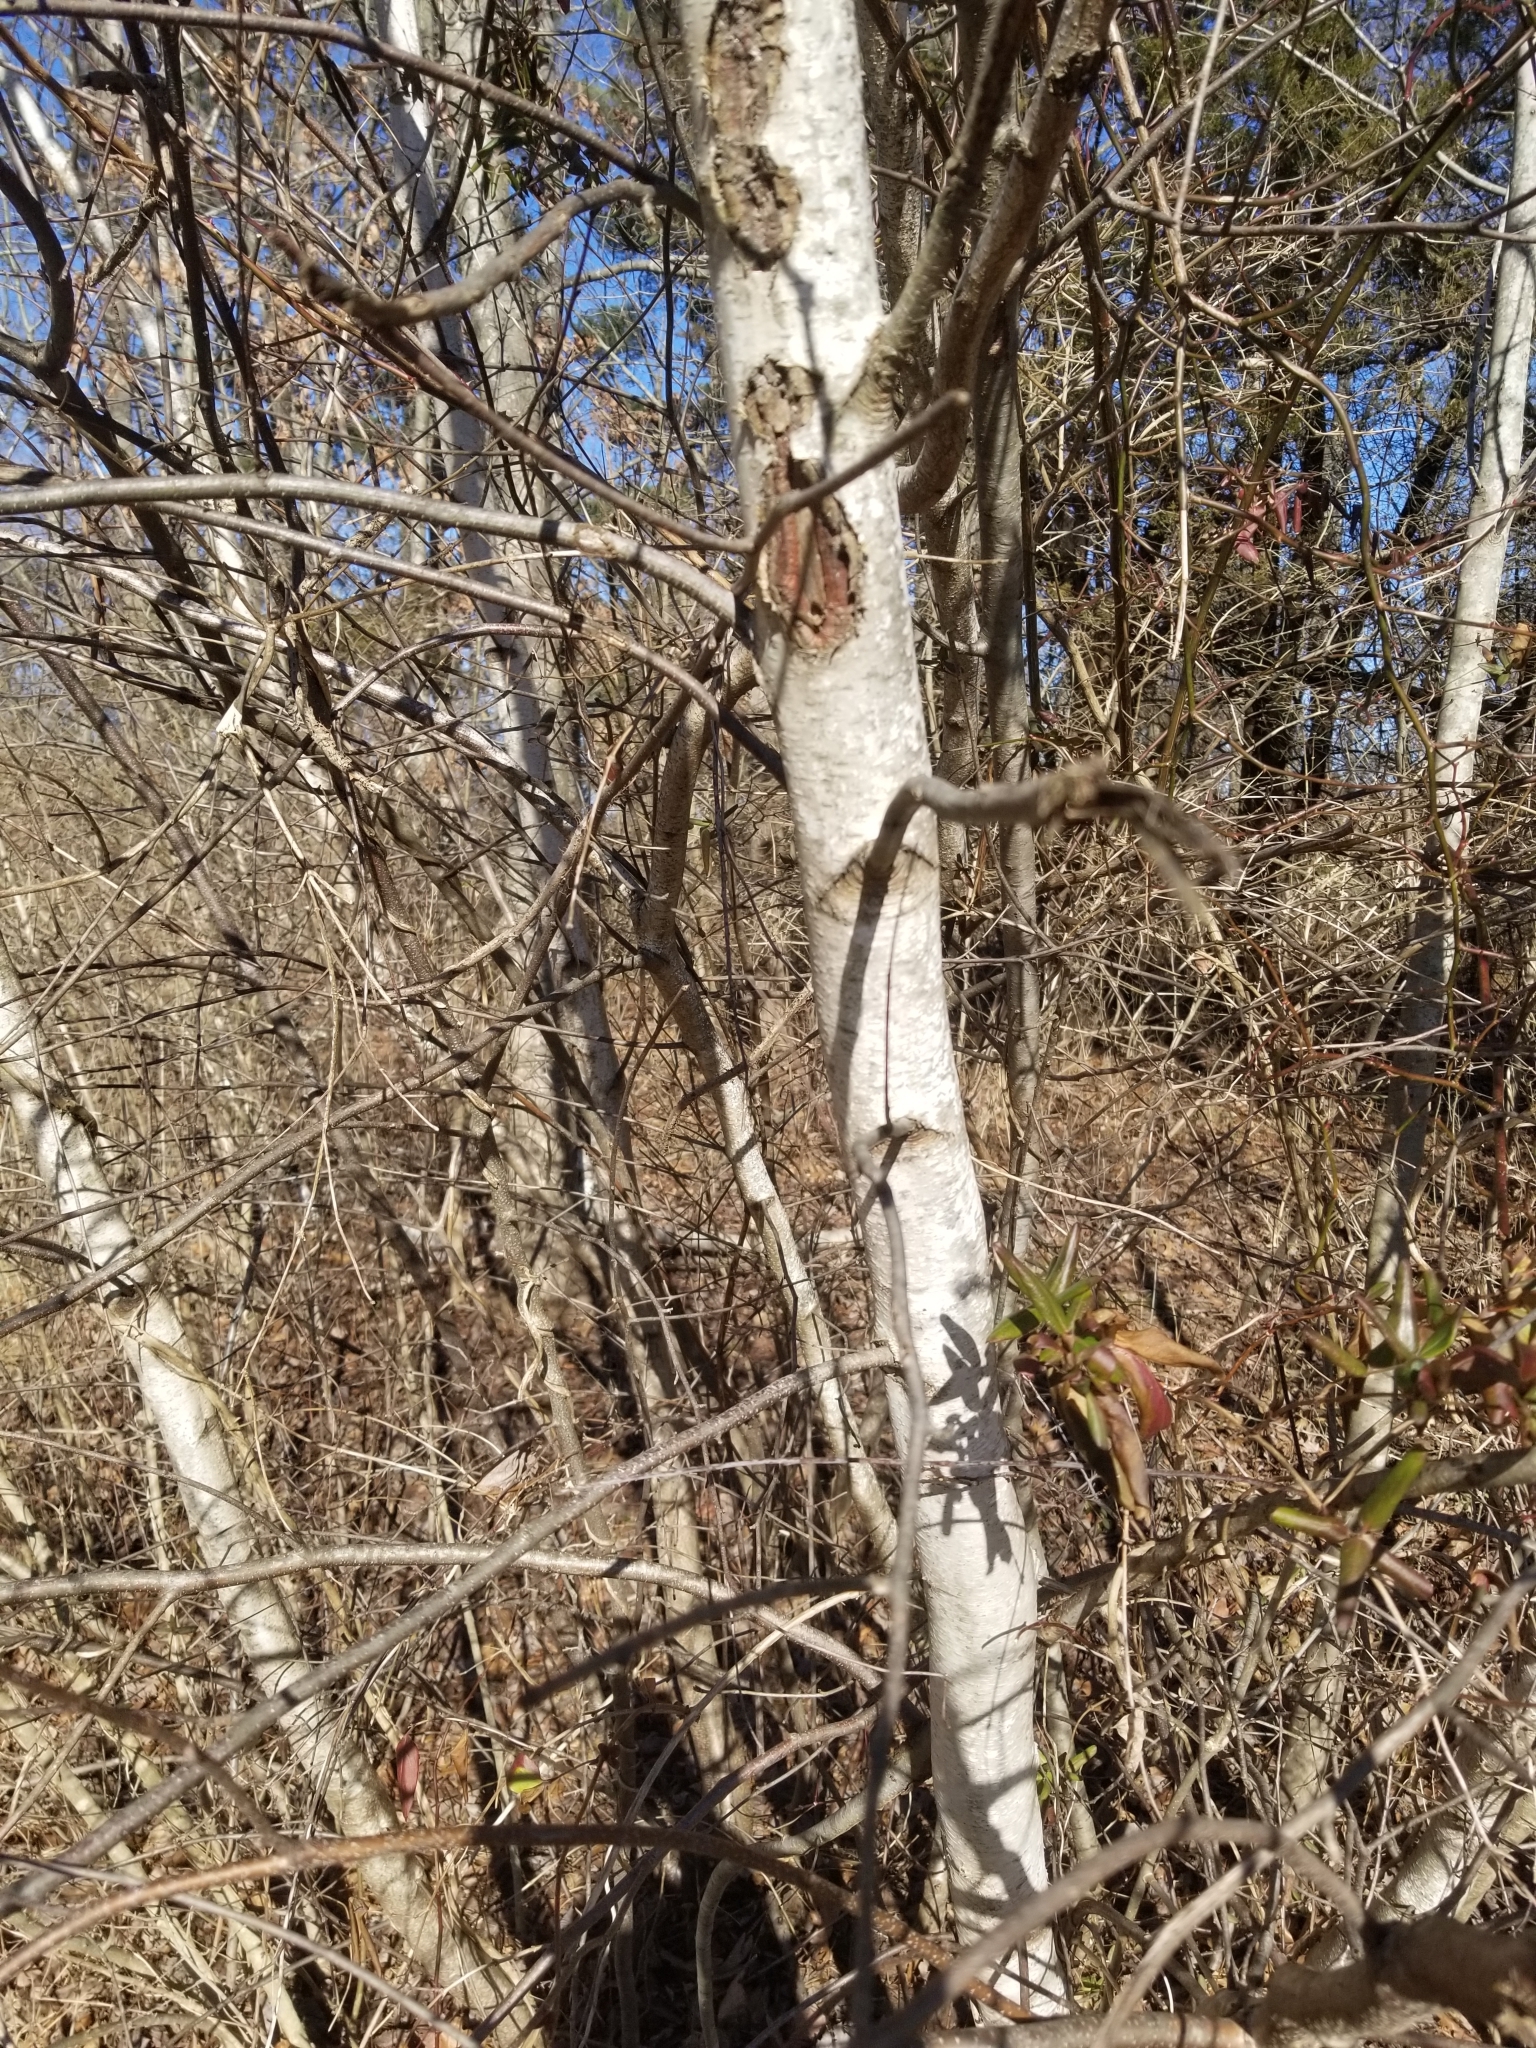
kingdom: Plantae
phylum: Tracheophyta
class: Magnoliopsida
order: Fagales
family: Betulaceae
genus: Betula
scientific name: Betula populifolia
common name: Fire birch
